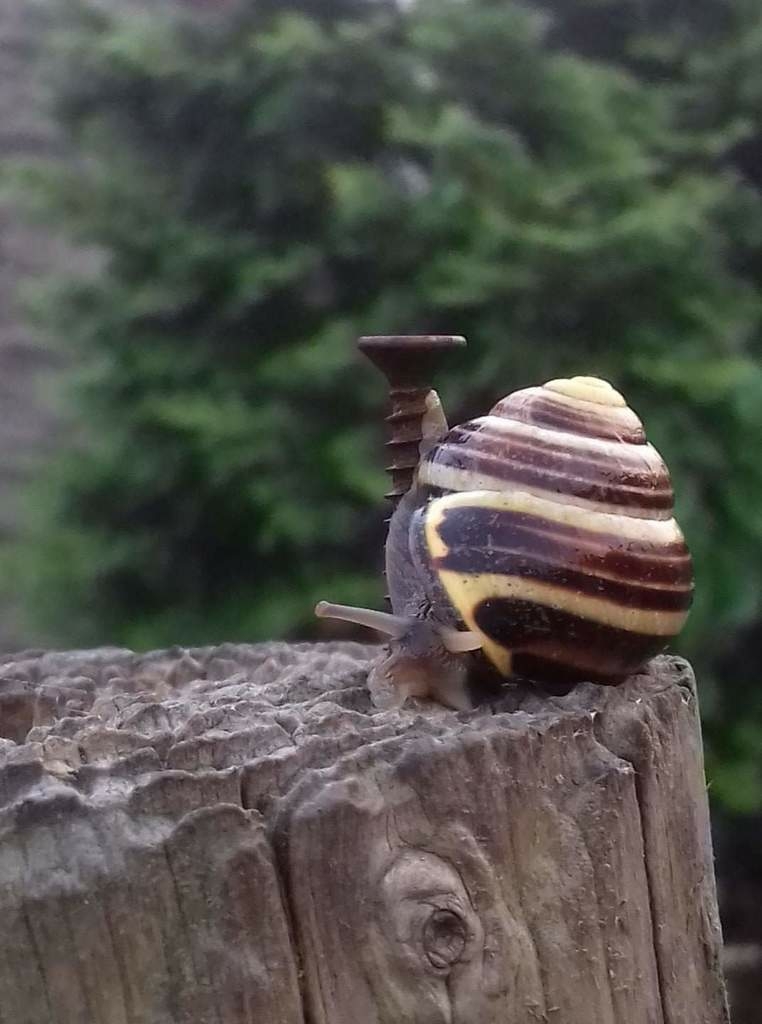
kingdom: Animalia
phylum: Mollusca
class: Gastropoda
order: Stylommatophora
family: Helicidae
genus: Cepaea
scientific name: Cepaea nemoralis
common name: Grovesnail
